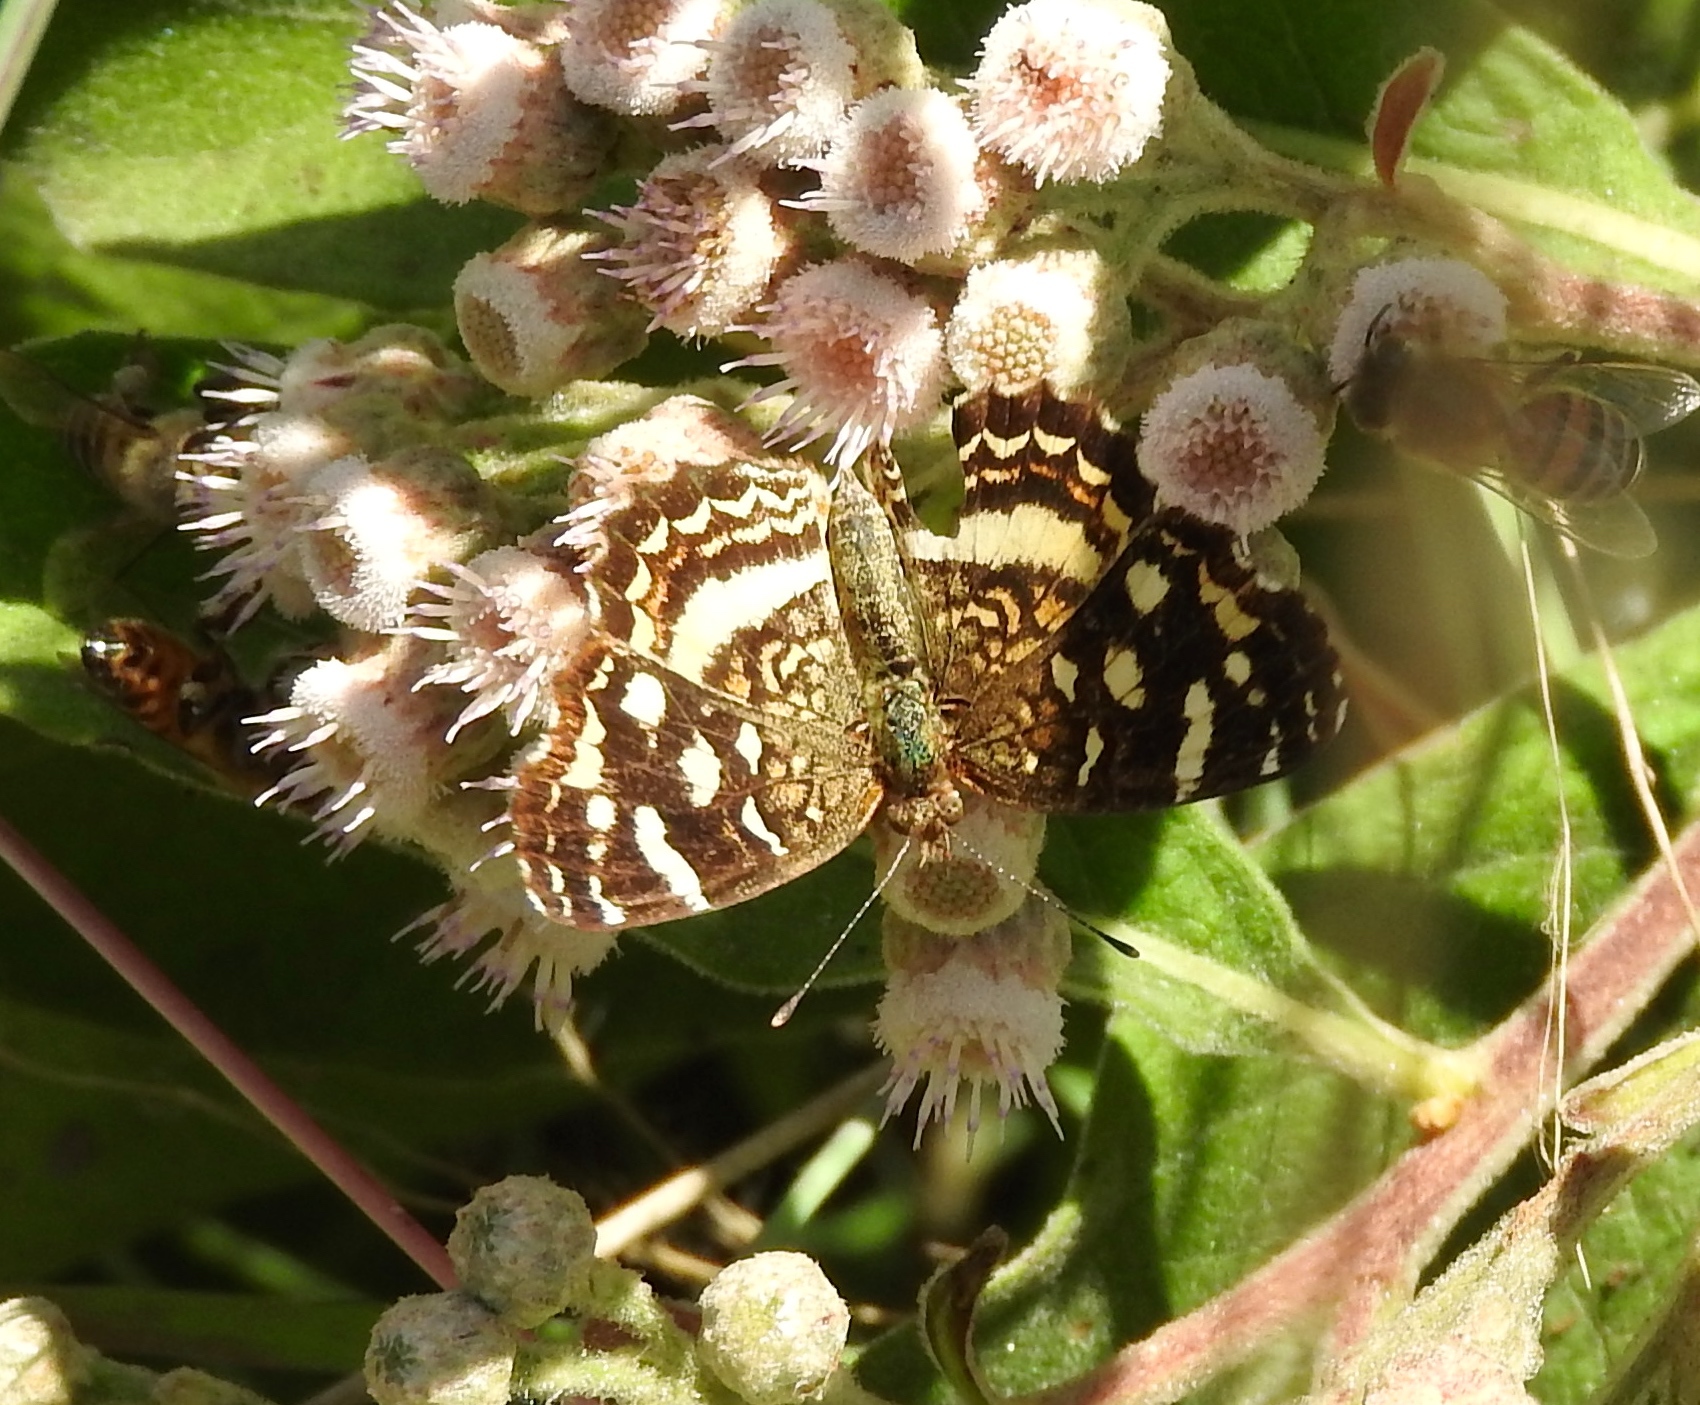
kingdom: Animalia
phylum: Arthropoda
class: Insecta
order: Lepidoptera
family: Nymphalidae
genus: Anthanassa
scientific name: Anthanassa tulcis
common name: Pale-banded crescent
